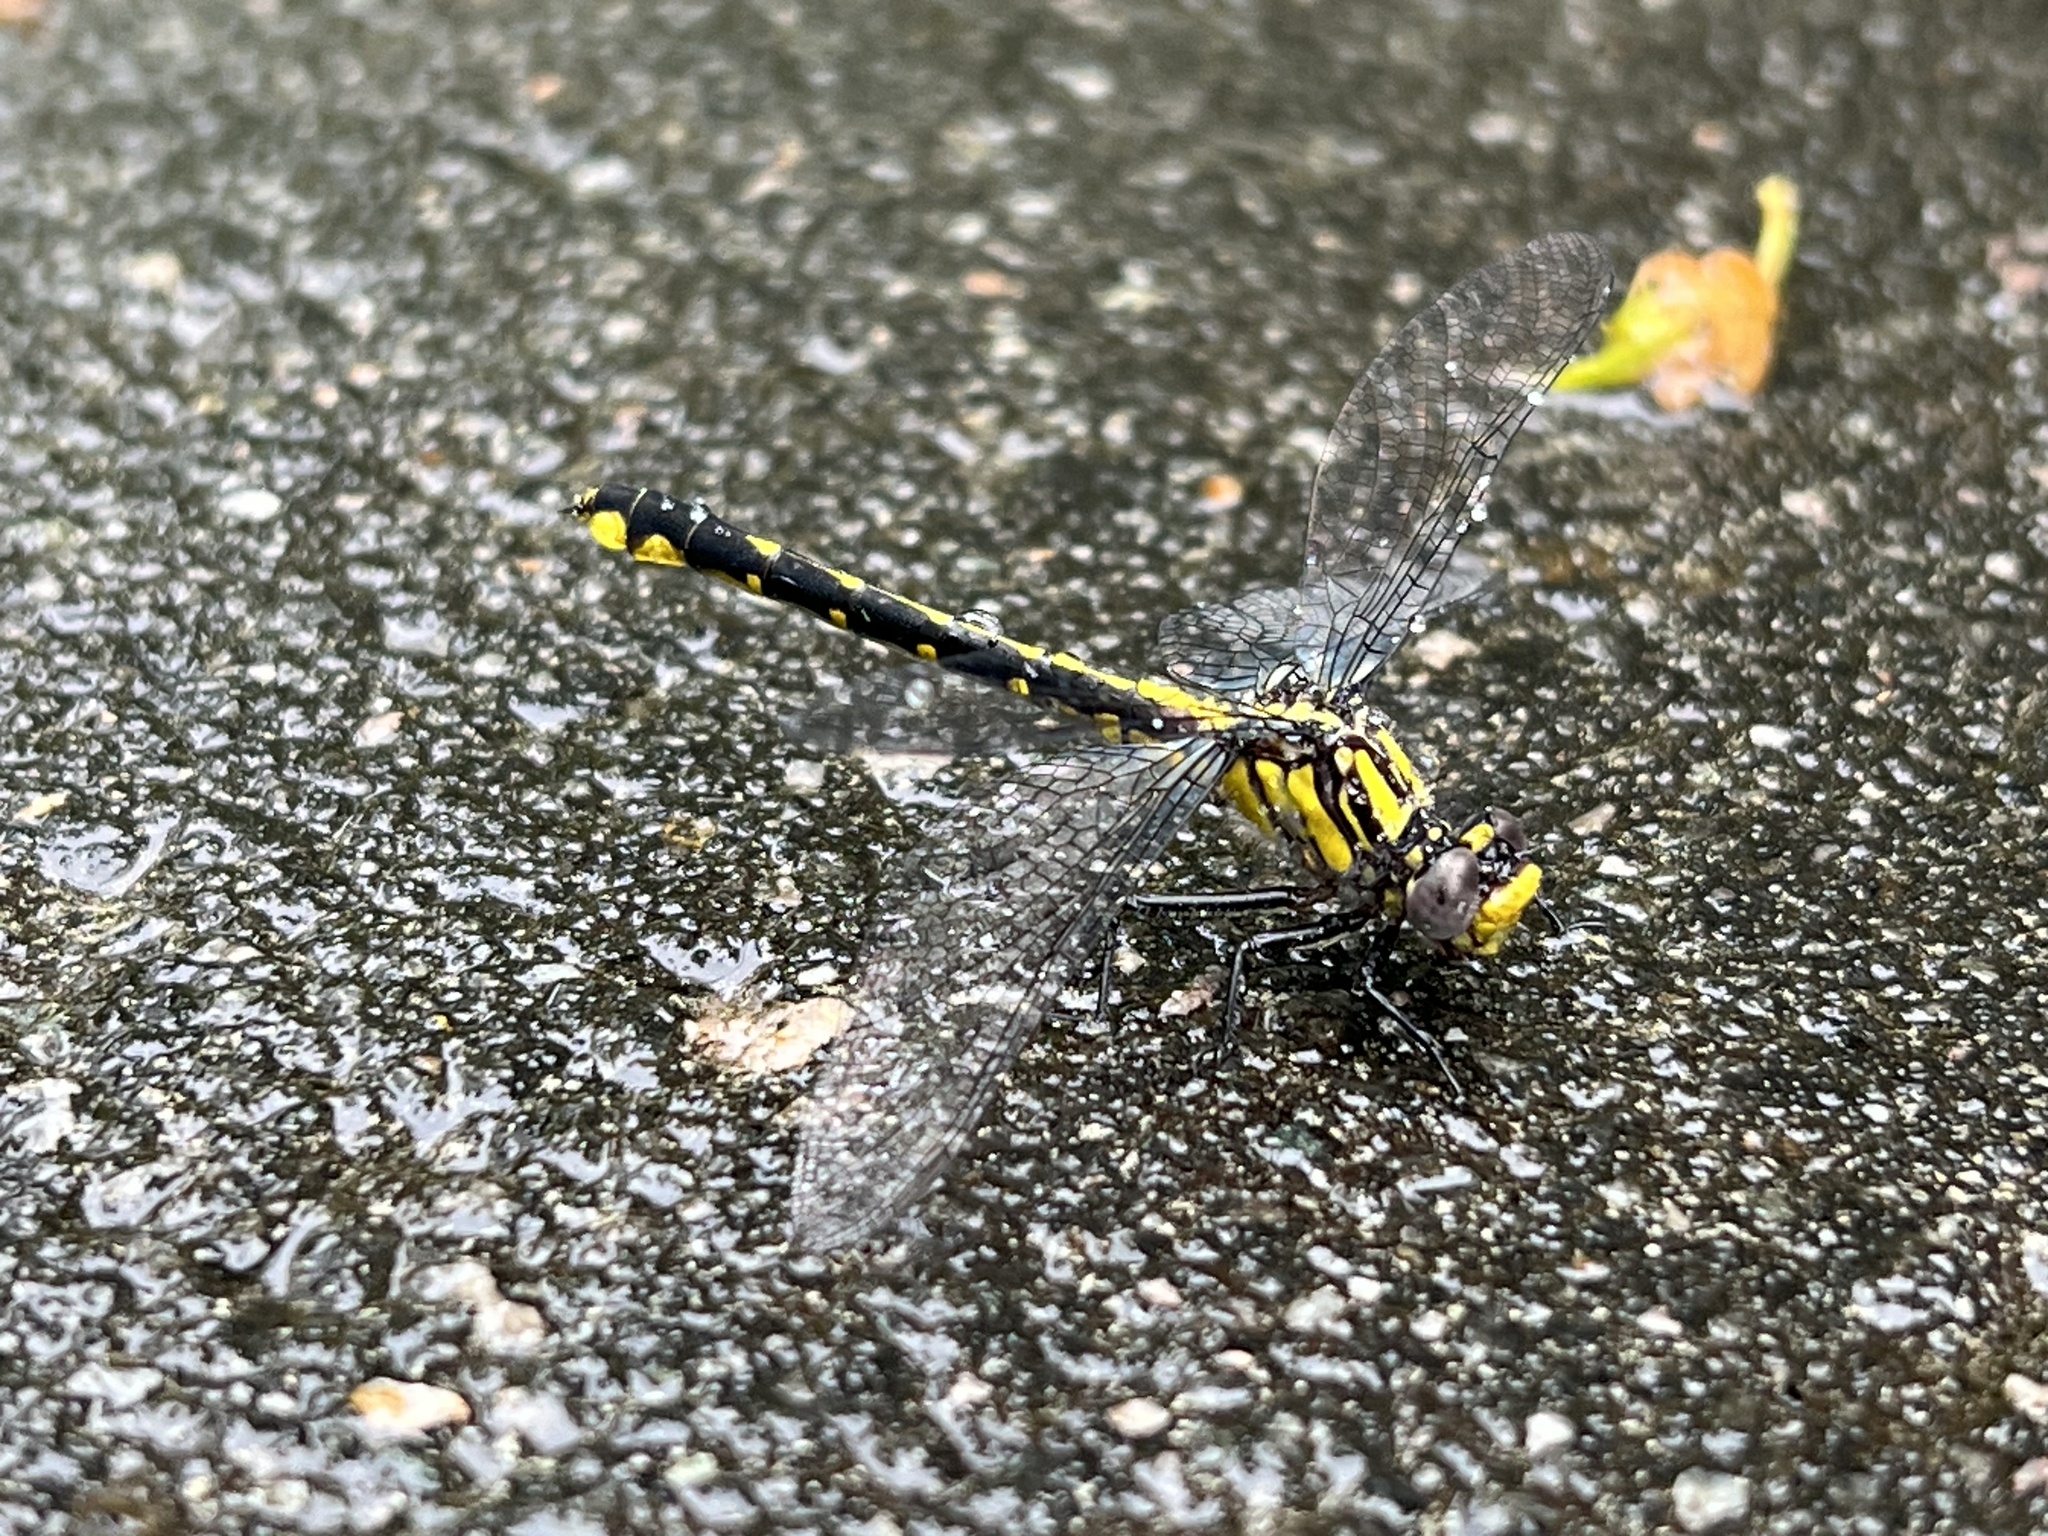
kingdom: Animalia
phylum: Arthropoda
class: Insecta
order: Odonata
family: Gomphidae
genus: Hylogomphus
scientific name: Hylogomphus abbreviatus
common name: Spine-crowned clubtail
